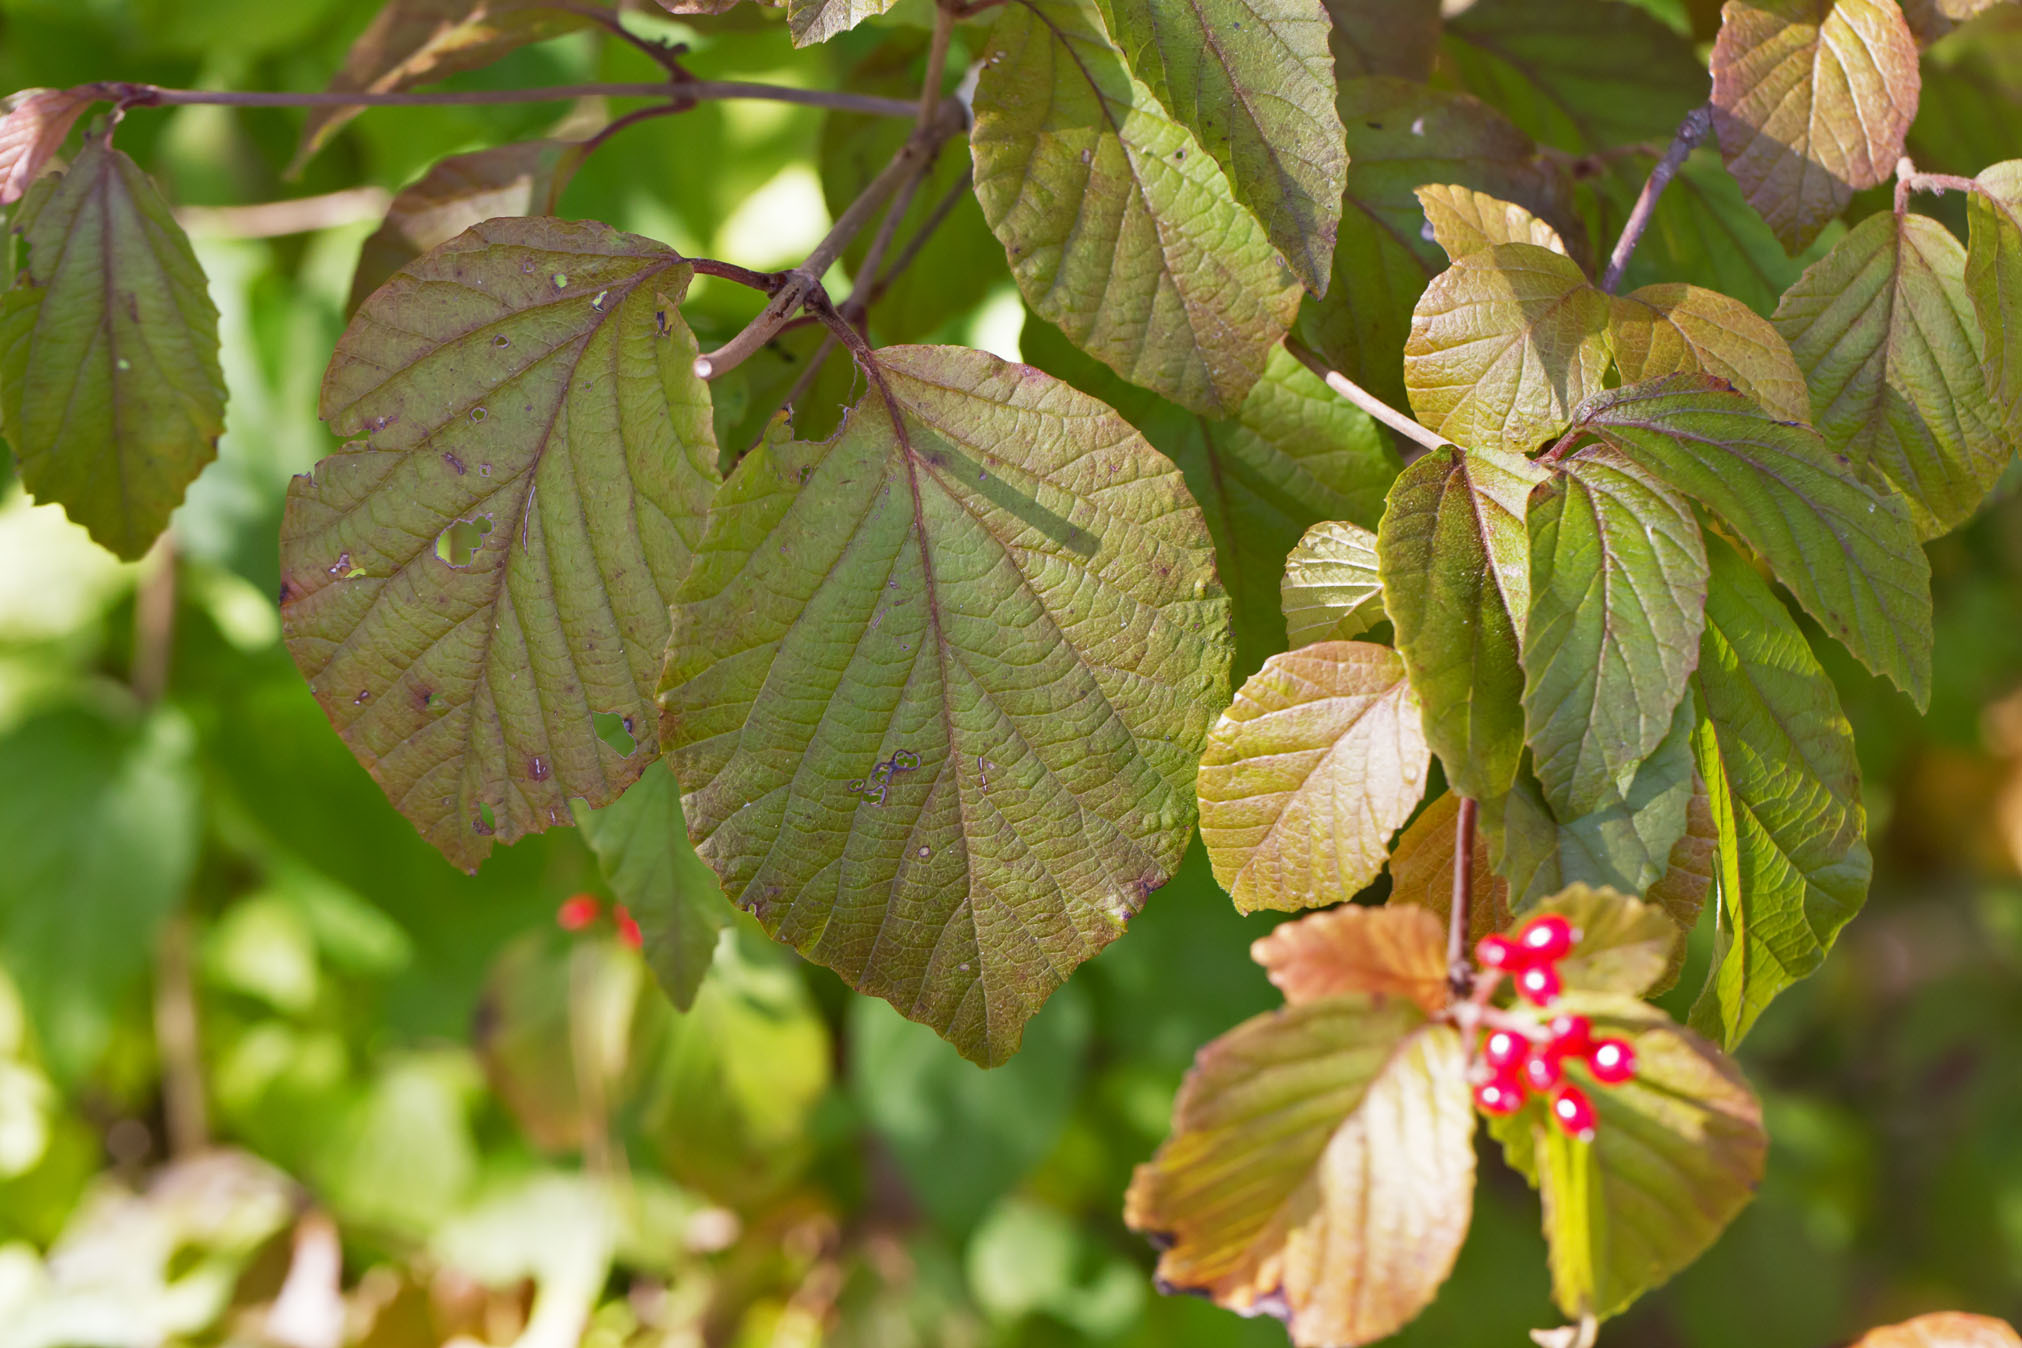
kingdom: Plantae
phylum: Tracheophyta
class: Magnoliopsida
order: Dipsacales
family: Viburnaceae
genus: Viburnum
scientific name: Viburnum dilatatum
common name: Linden arrowwood
